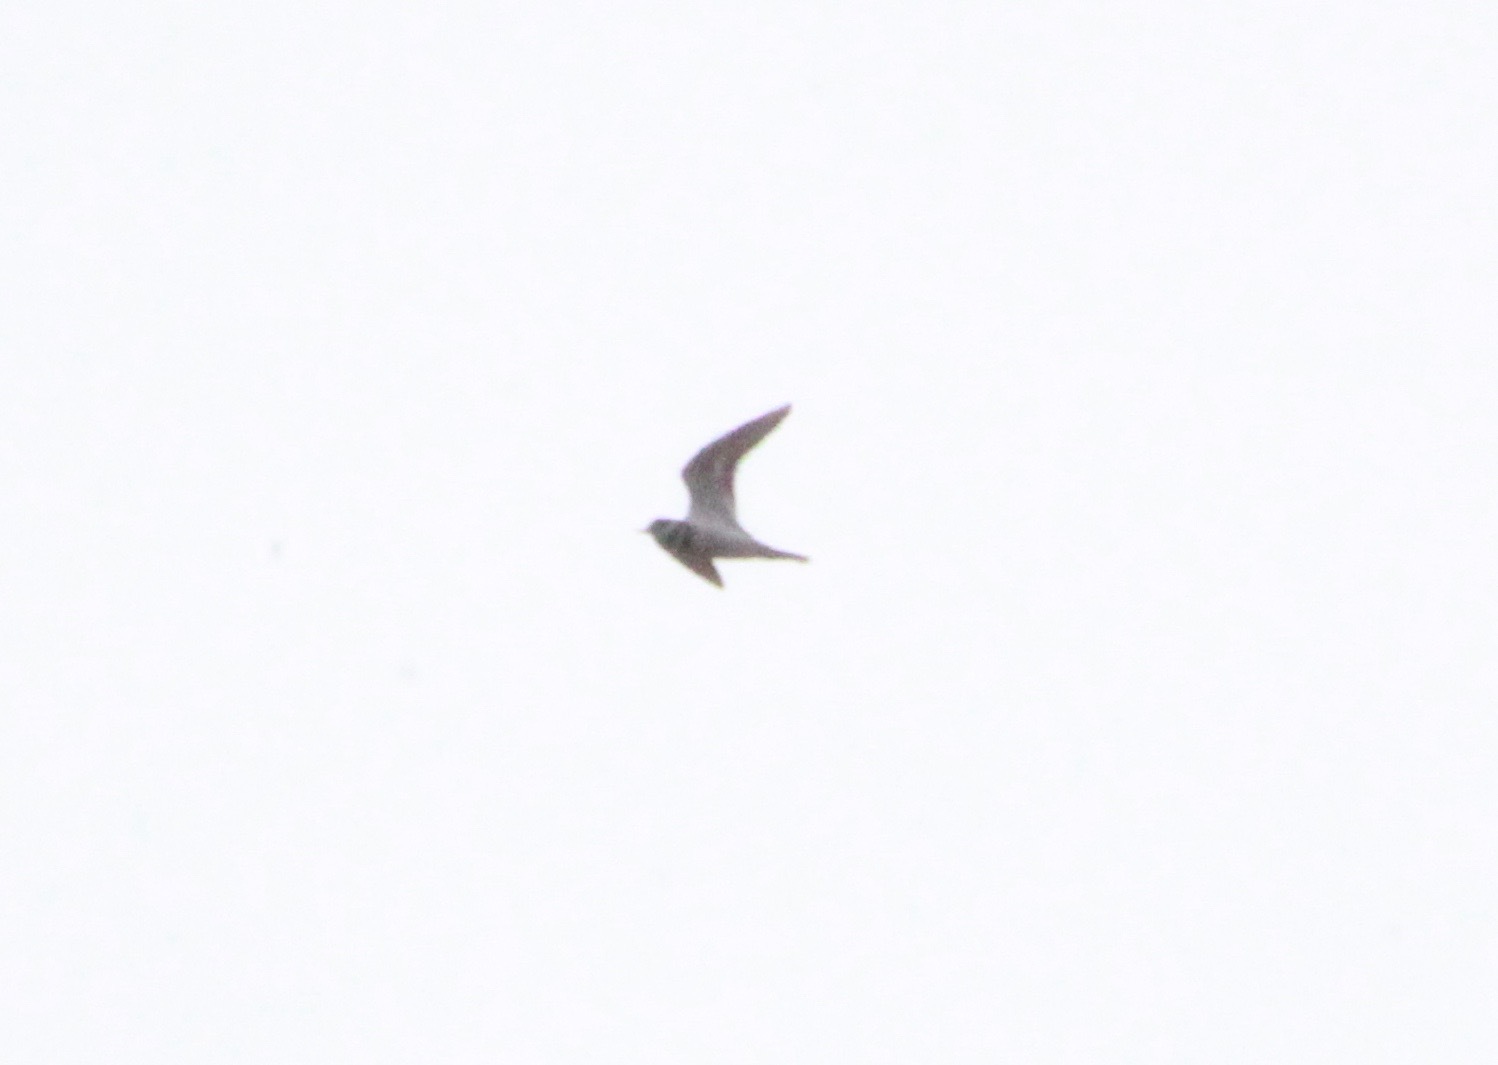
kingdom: Animalia
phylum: Chordata
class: Aves
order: Charadriiformes
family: Charadriidae
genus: Charadrius
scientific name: Charadrius vociferus
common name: Killdeer
